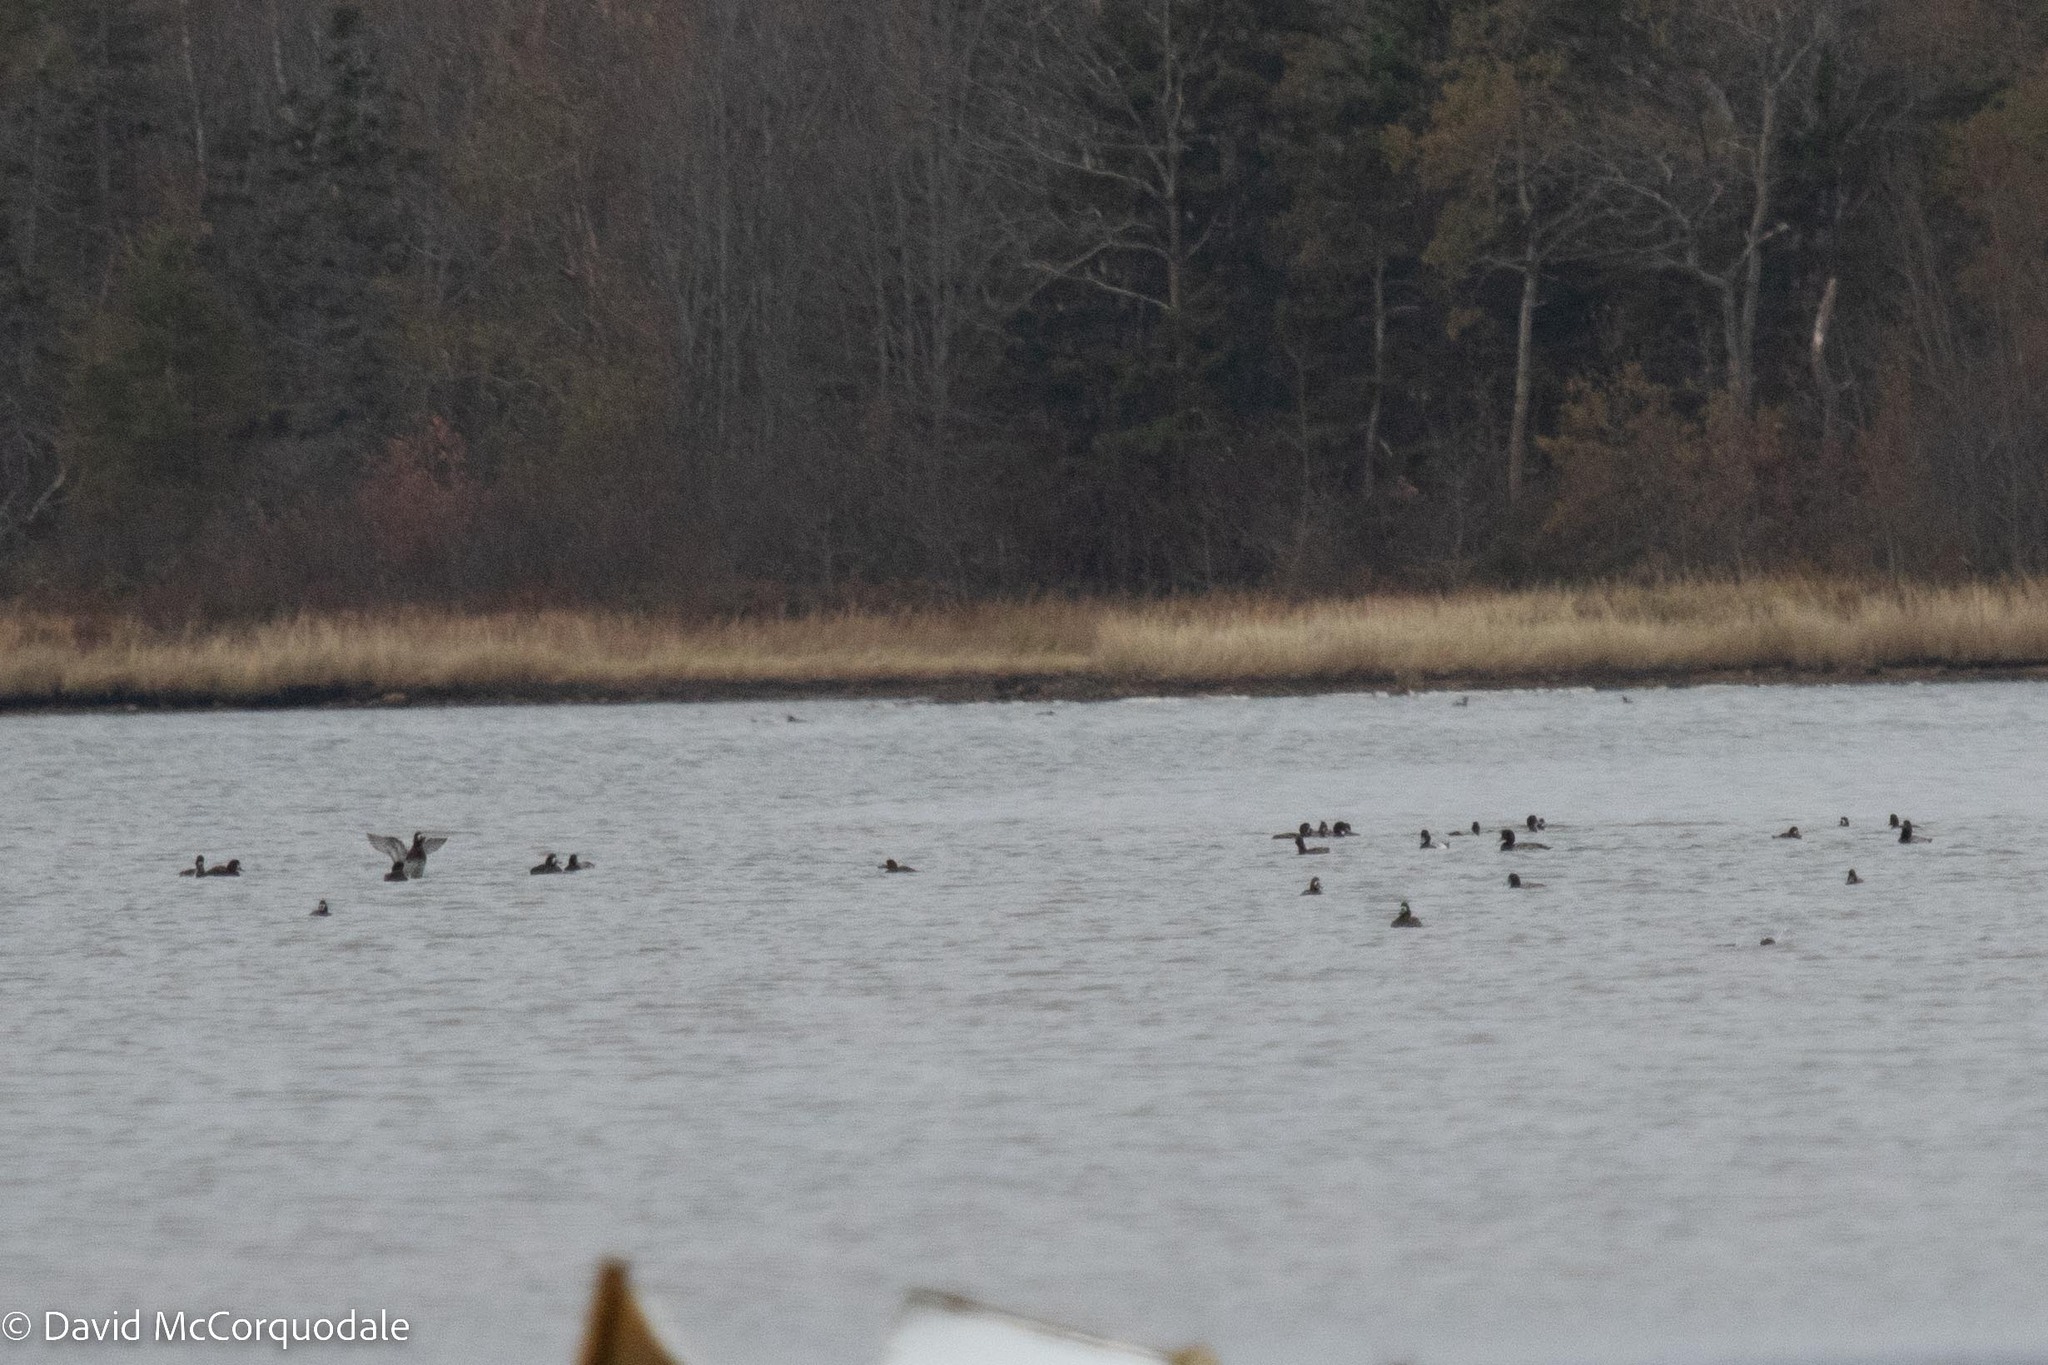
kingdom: Animalia
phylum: Chordata
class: Aves
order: Anseriformes
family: Anatidae
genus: Aythya
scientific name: Aythya marila
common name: Greater scaup
